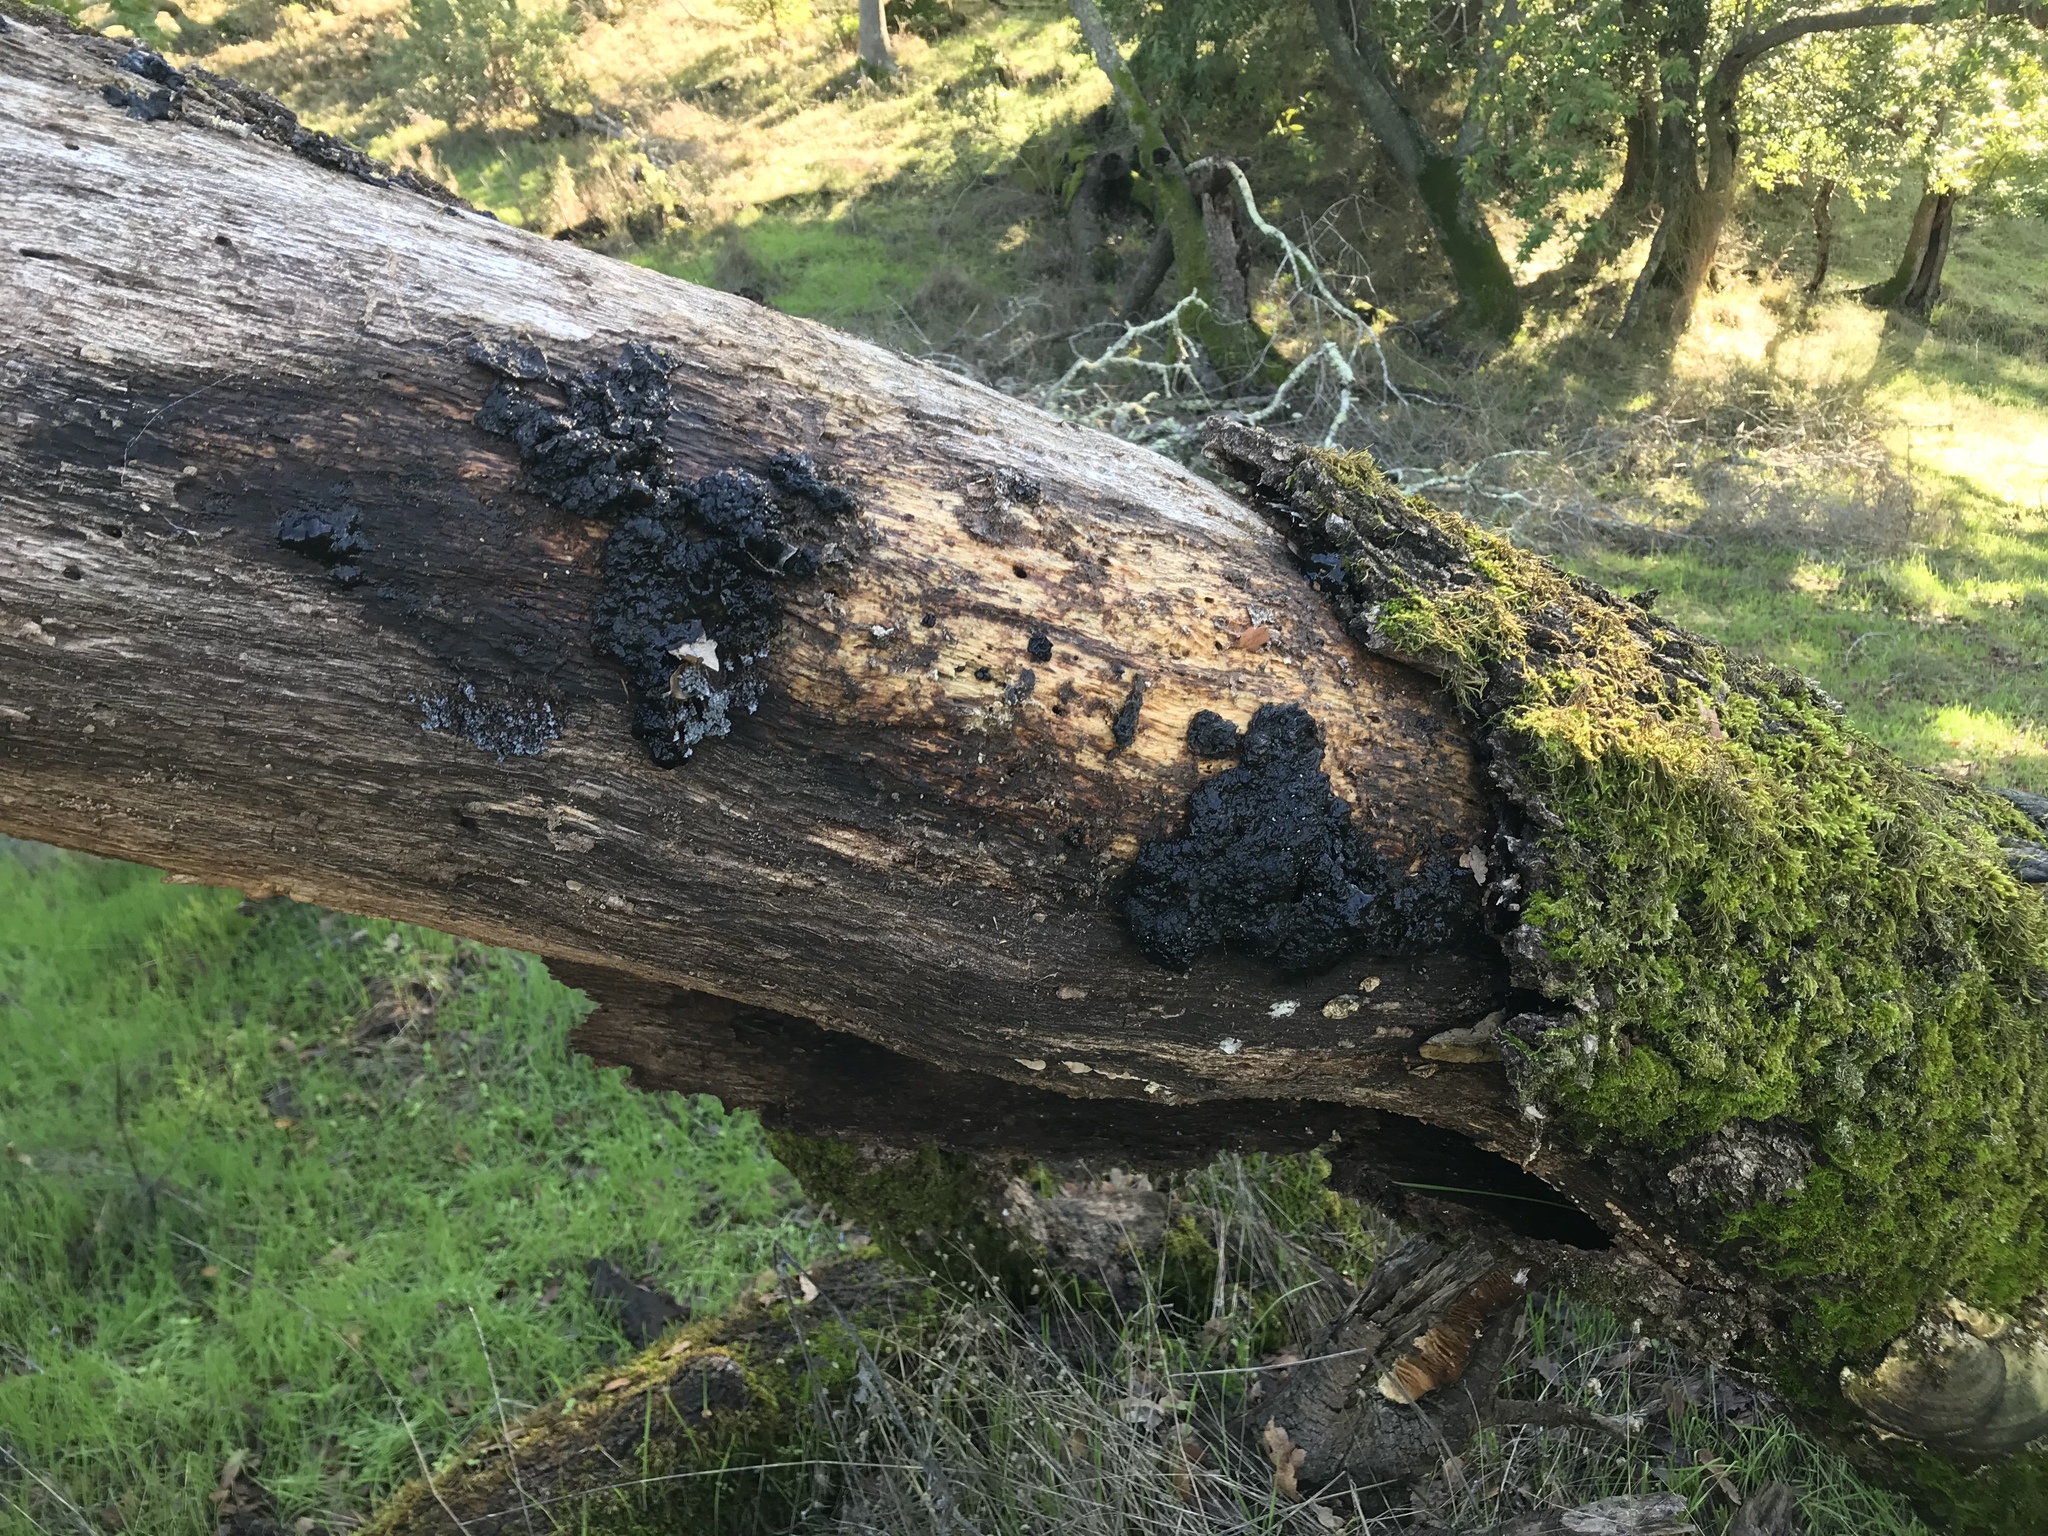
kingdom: Fungi
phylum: Basidiomycota
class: Agaricomycetes
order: Auriculariales
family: Auriculariaceae
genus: Exidia
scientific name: Exidia glandulosa
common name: Witches' butter
